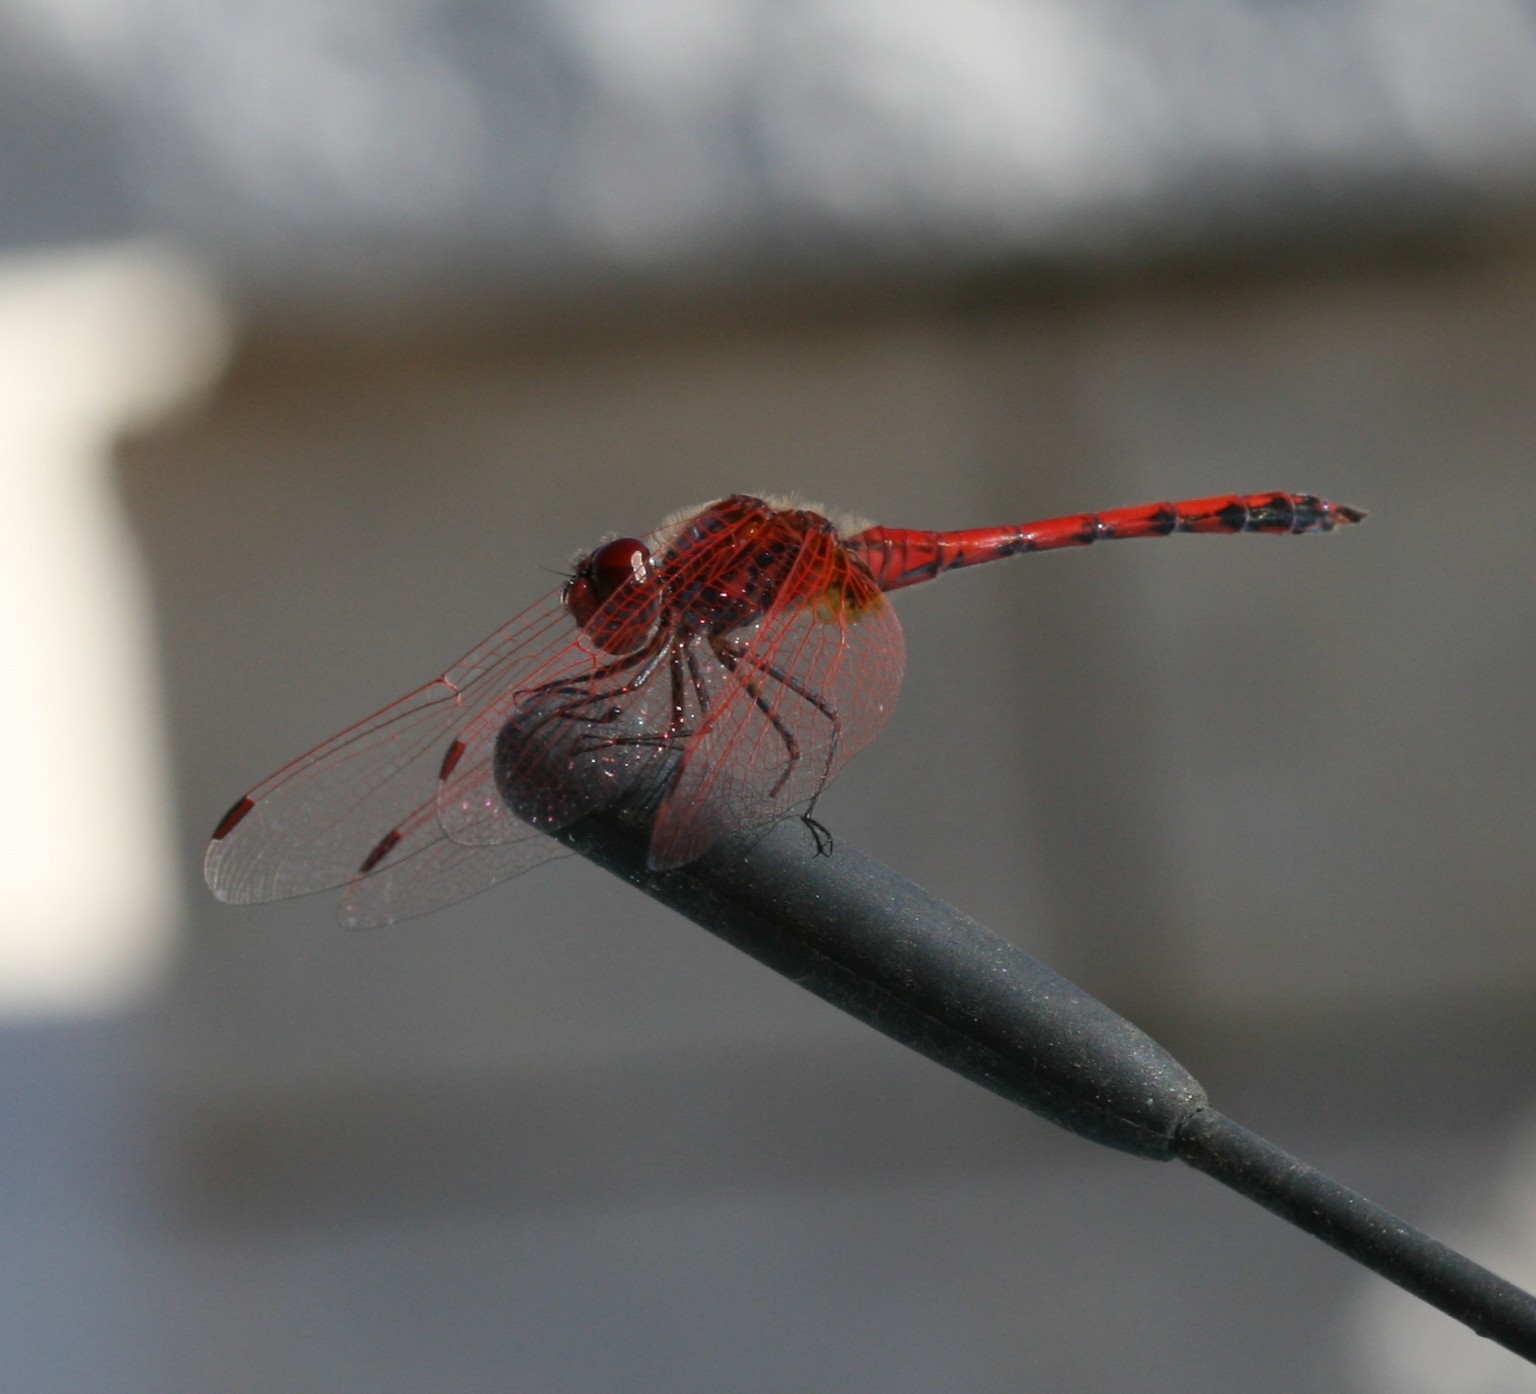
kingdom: Animalia
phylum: Arthropoda
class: Insecta
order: Odonata
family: Libellulidae
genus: Trithemis
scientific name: Trithemis arteriosa
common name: Red-veined dropwing
